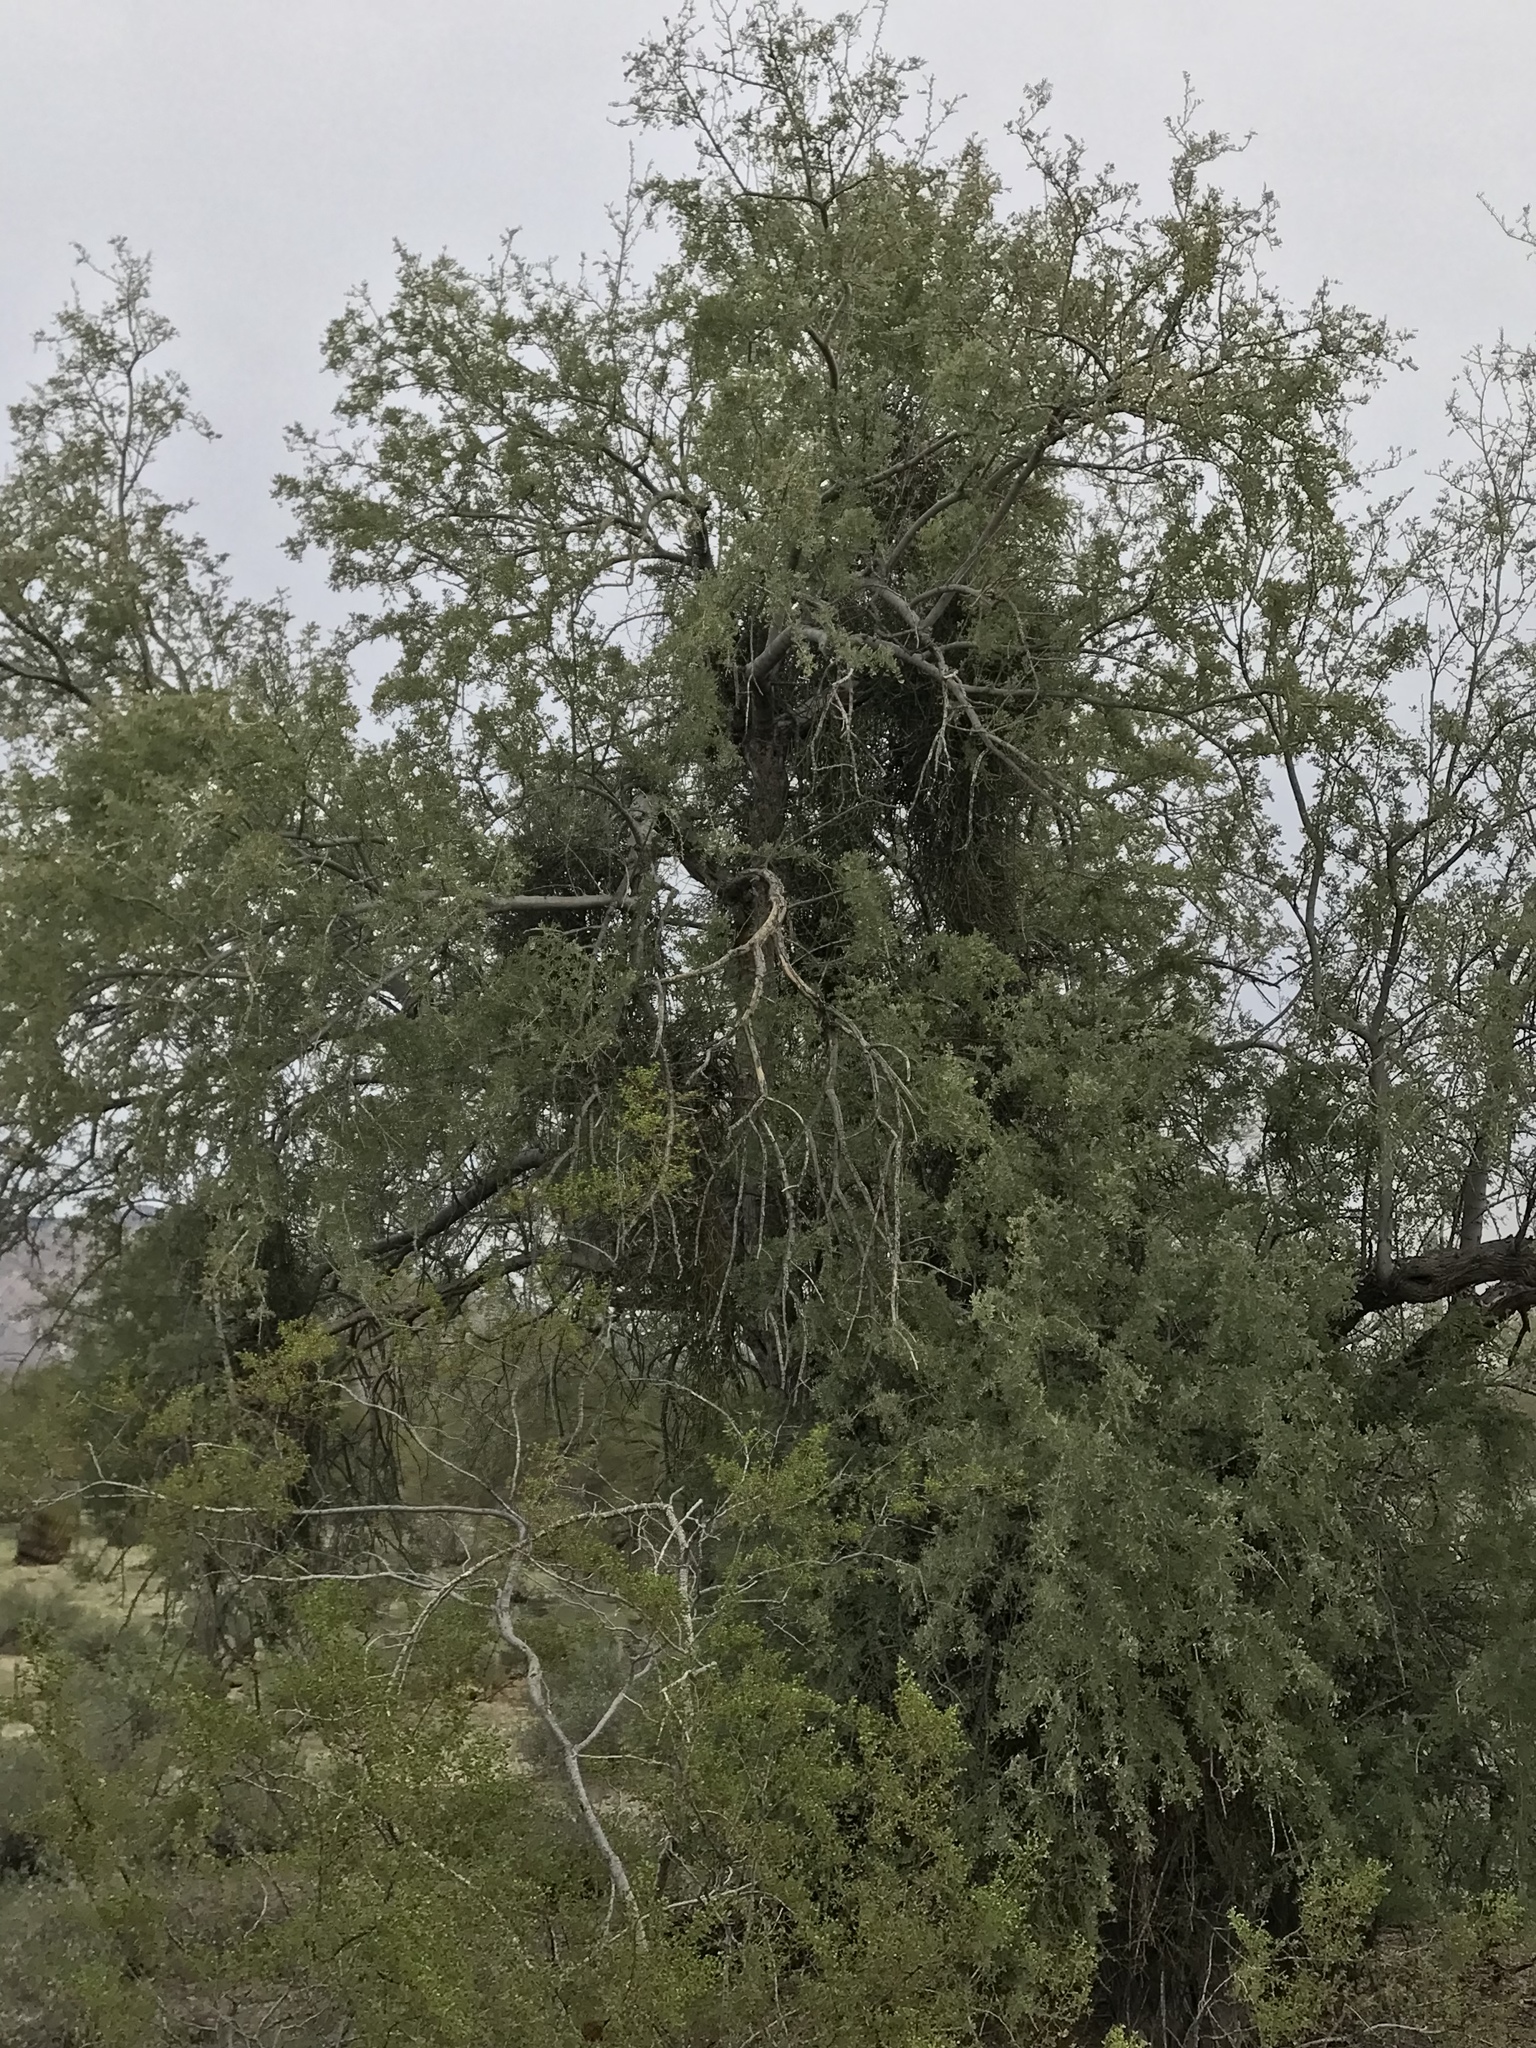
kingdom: Plantae
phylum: Tracheophyta
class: Magnoliopsida
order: Fabales
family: Fabaceae
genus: Olneya
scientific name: Olneya tesota
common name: Desert ironwood
